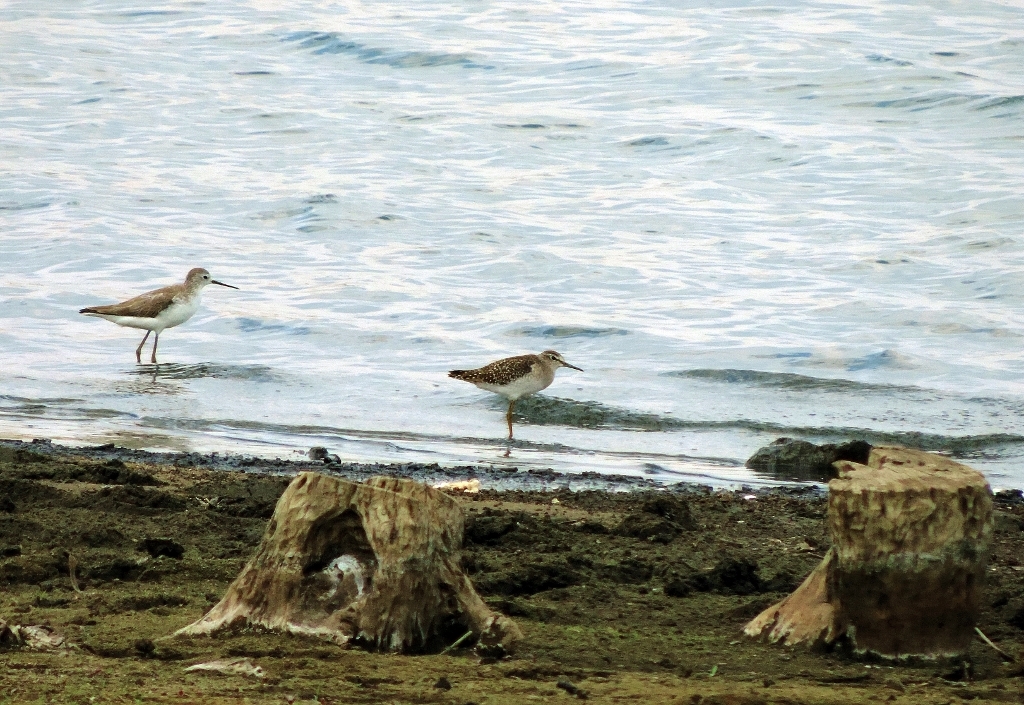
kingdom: Animalia
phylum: Chordata
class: Aves
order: Charadriiformes
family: Scolopacidae
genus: Tringa
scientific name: Tringa stagnatilis
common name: Marsh sandpiper
